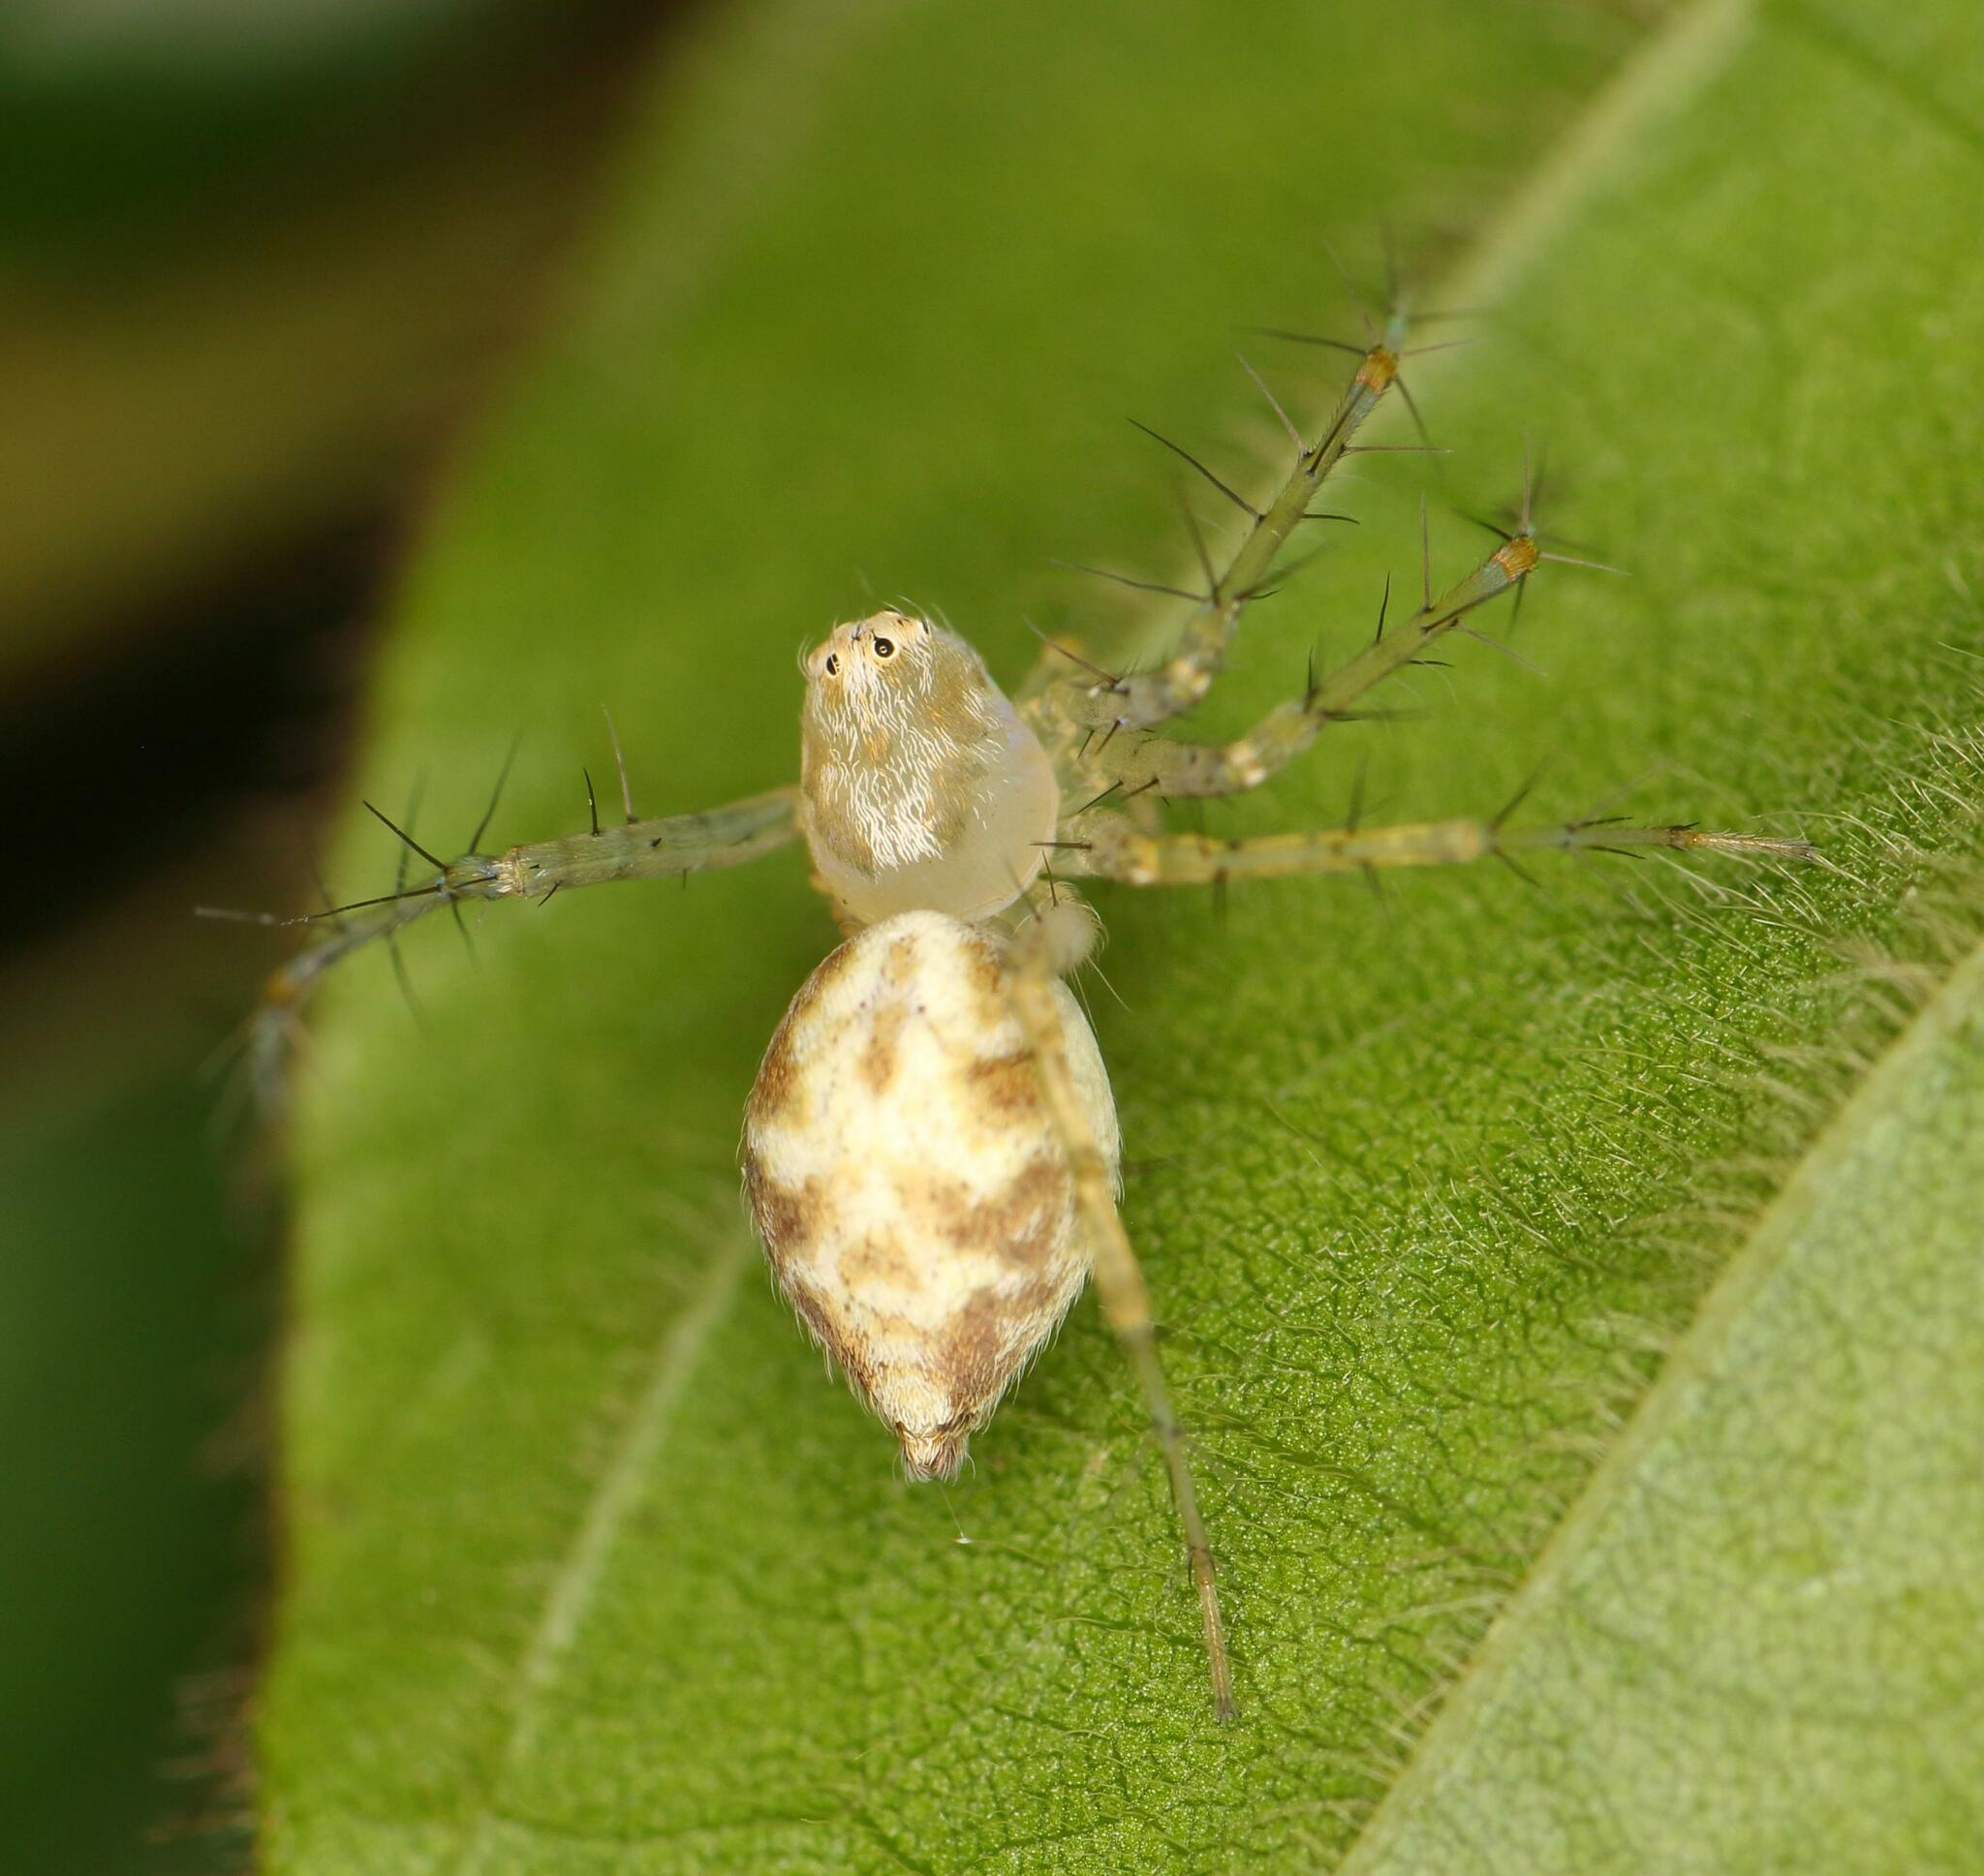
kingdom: Animalia
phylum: Arthropoda
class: Arachnida
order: Araneae
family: Oxyopidae
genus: Oxyopes
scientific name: Oxyopes longispinosus
